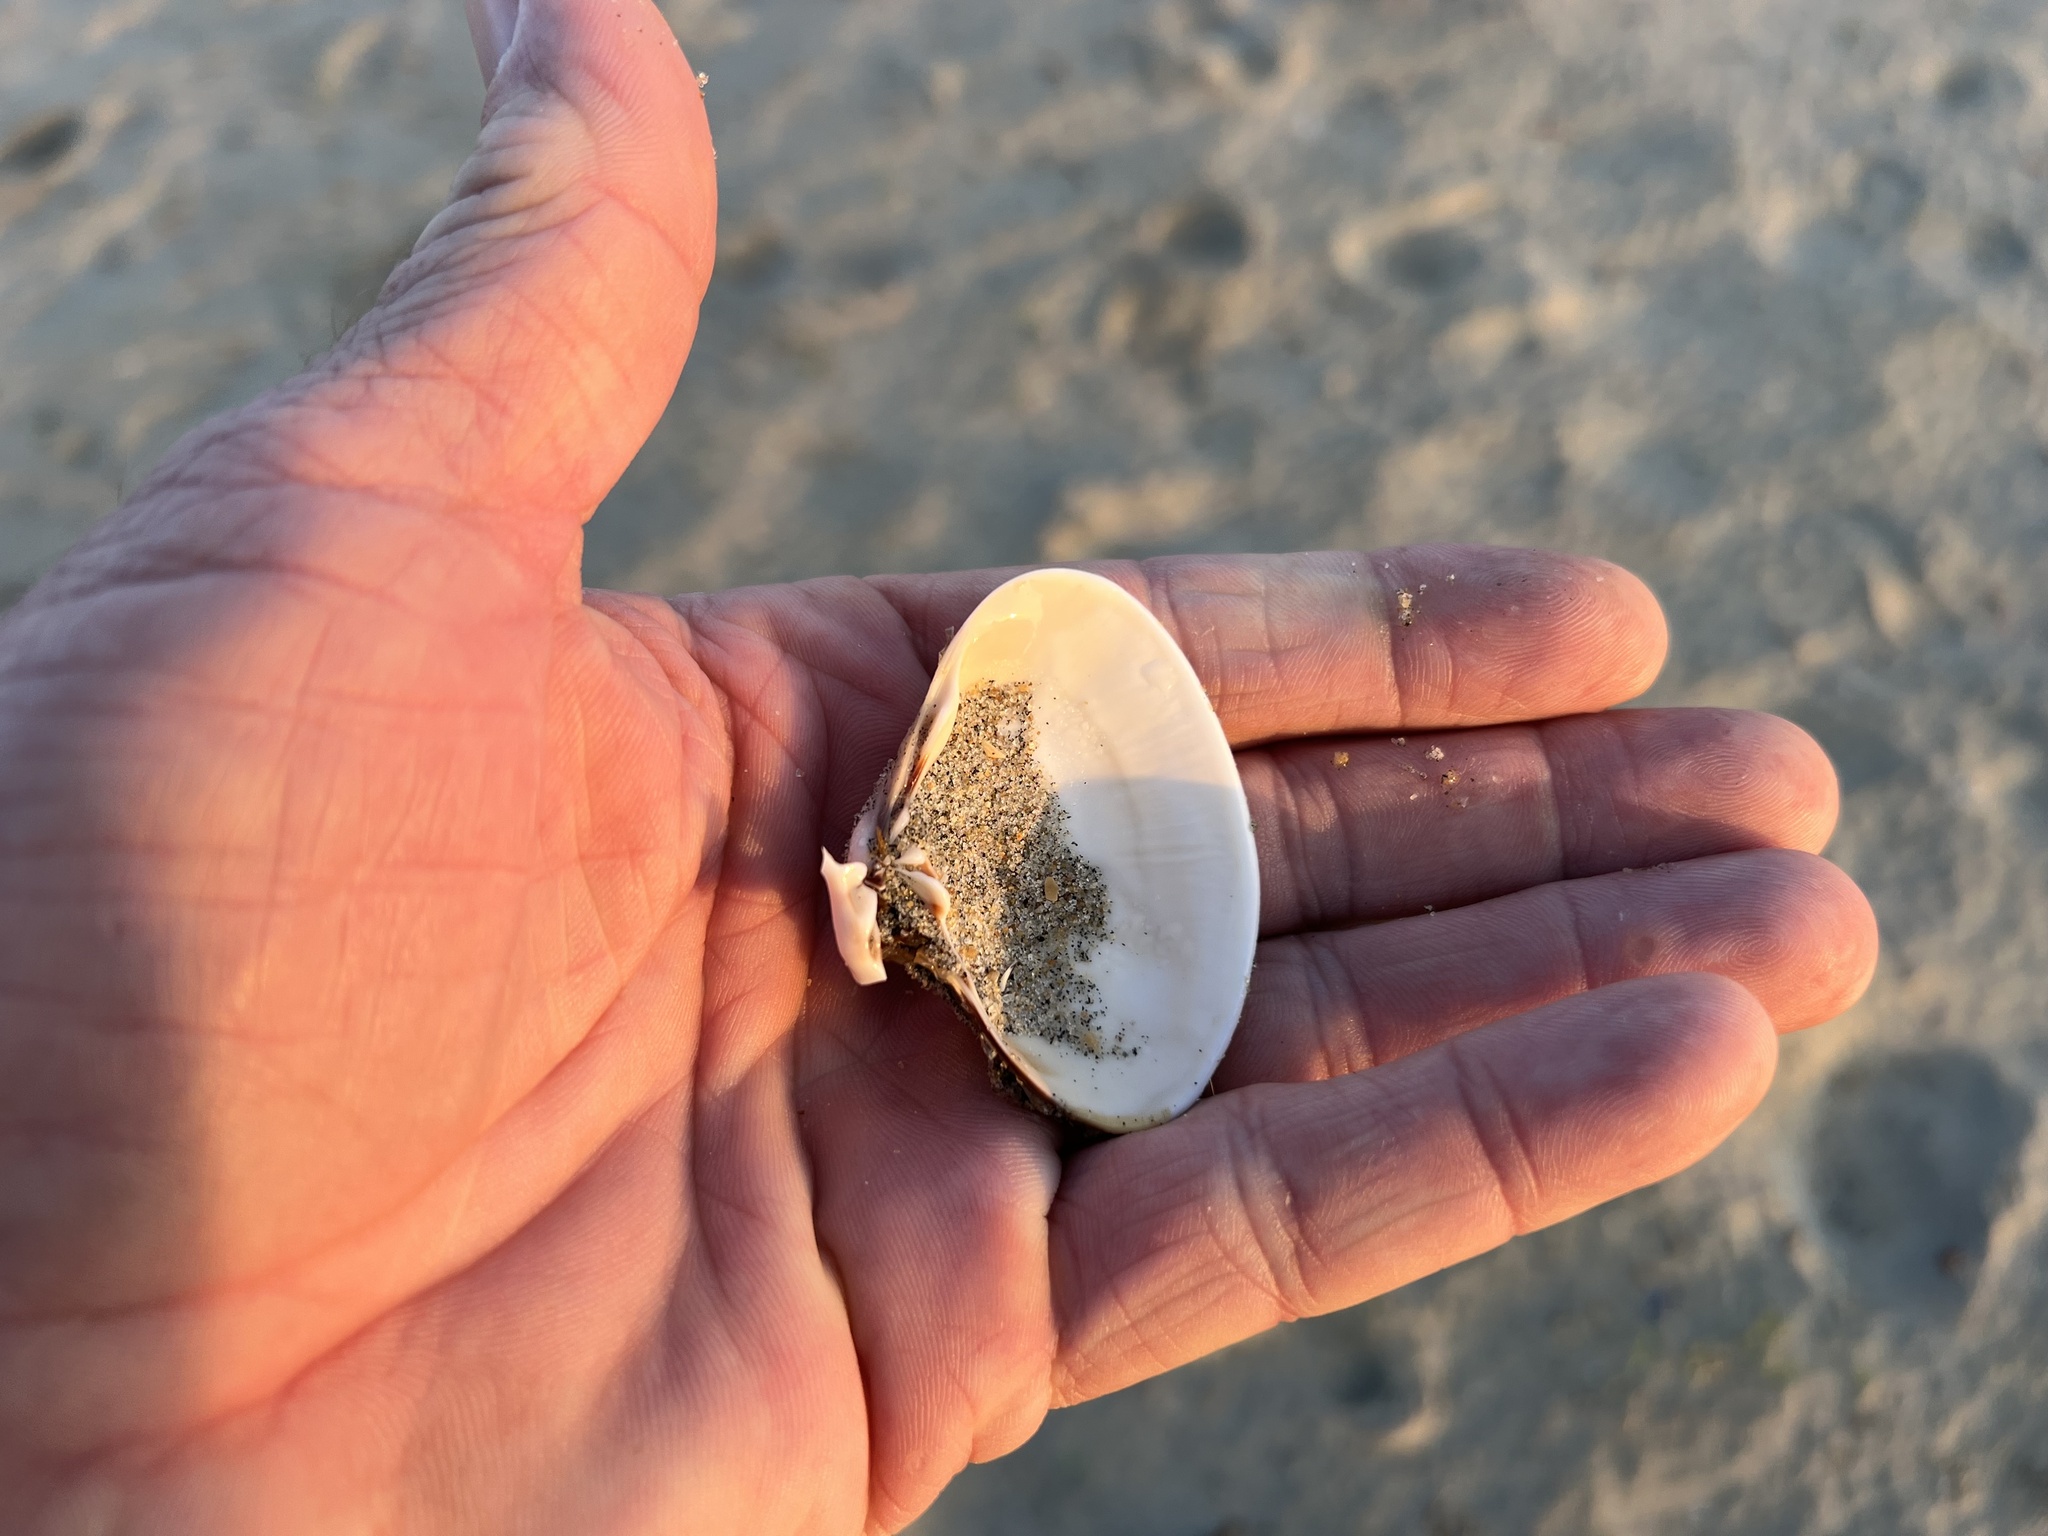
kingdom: Animalia
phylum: Mollusca
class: Bivalvia
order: Venerida
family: Veneridae
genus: Tivela
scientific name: Tivela stultorum
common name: Pismo clam
